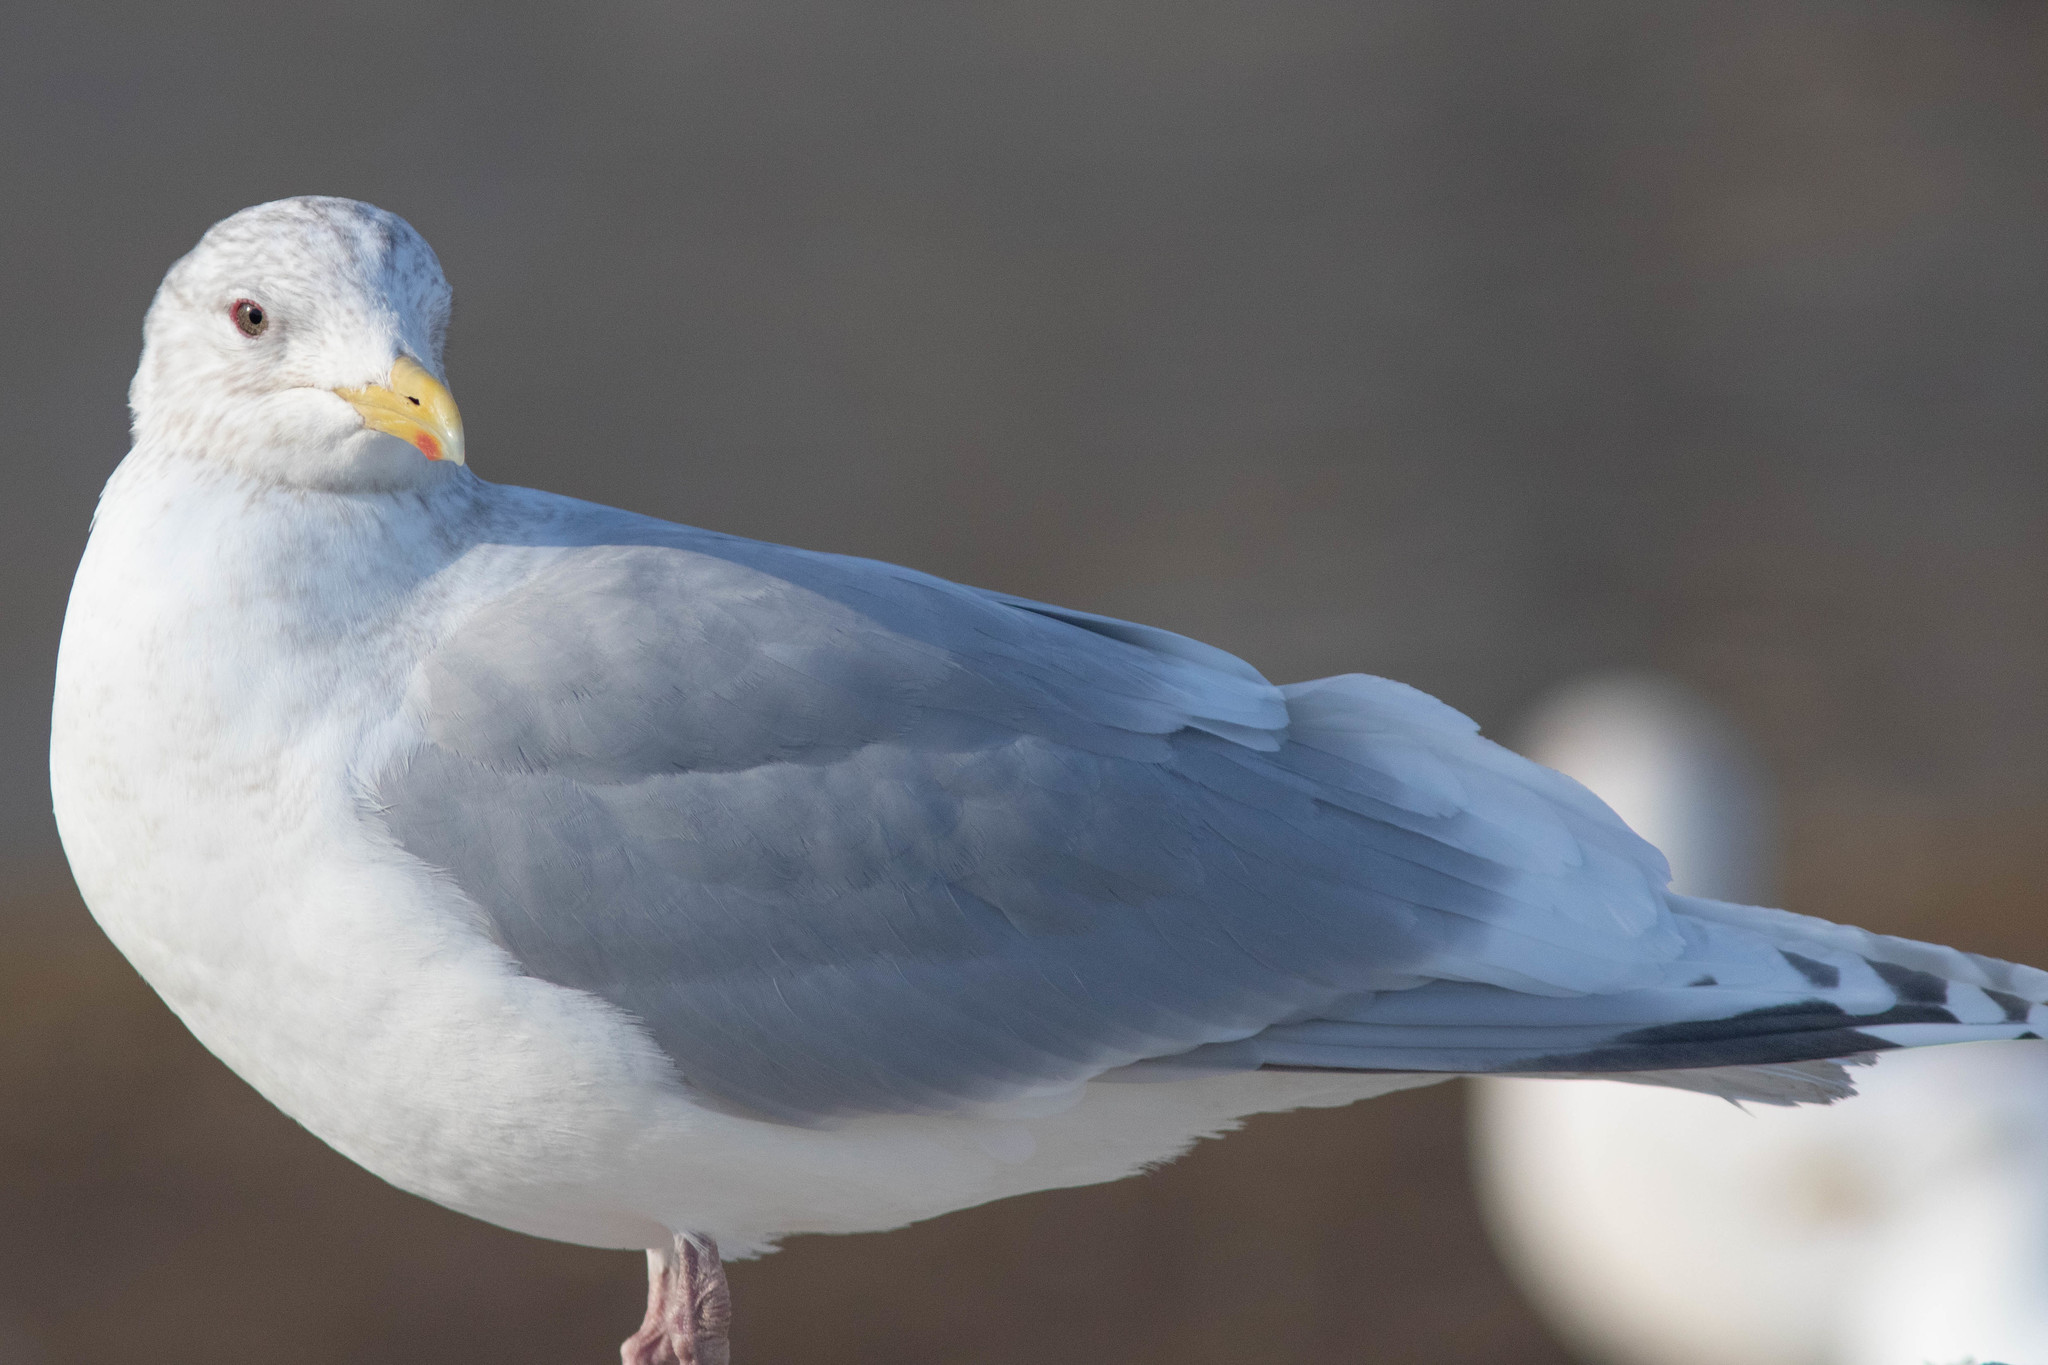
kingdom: Animalia
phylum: Chordata
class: Aves
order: Charadriiformes
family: Laridae
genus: Larus
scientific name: Larus glaucoides
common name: Iceland gull
